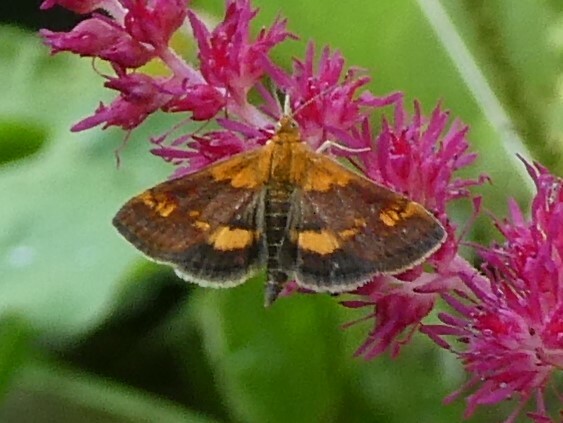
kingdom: Animalia
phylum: Arthropoda
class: Insecta
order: Lepidoptera
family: Crambidae
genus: Pyrausta
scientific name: Pyrausta orphisalis
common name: Orange mint moth
